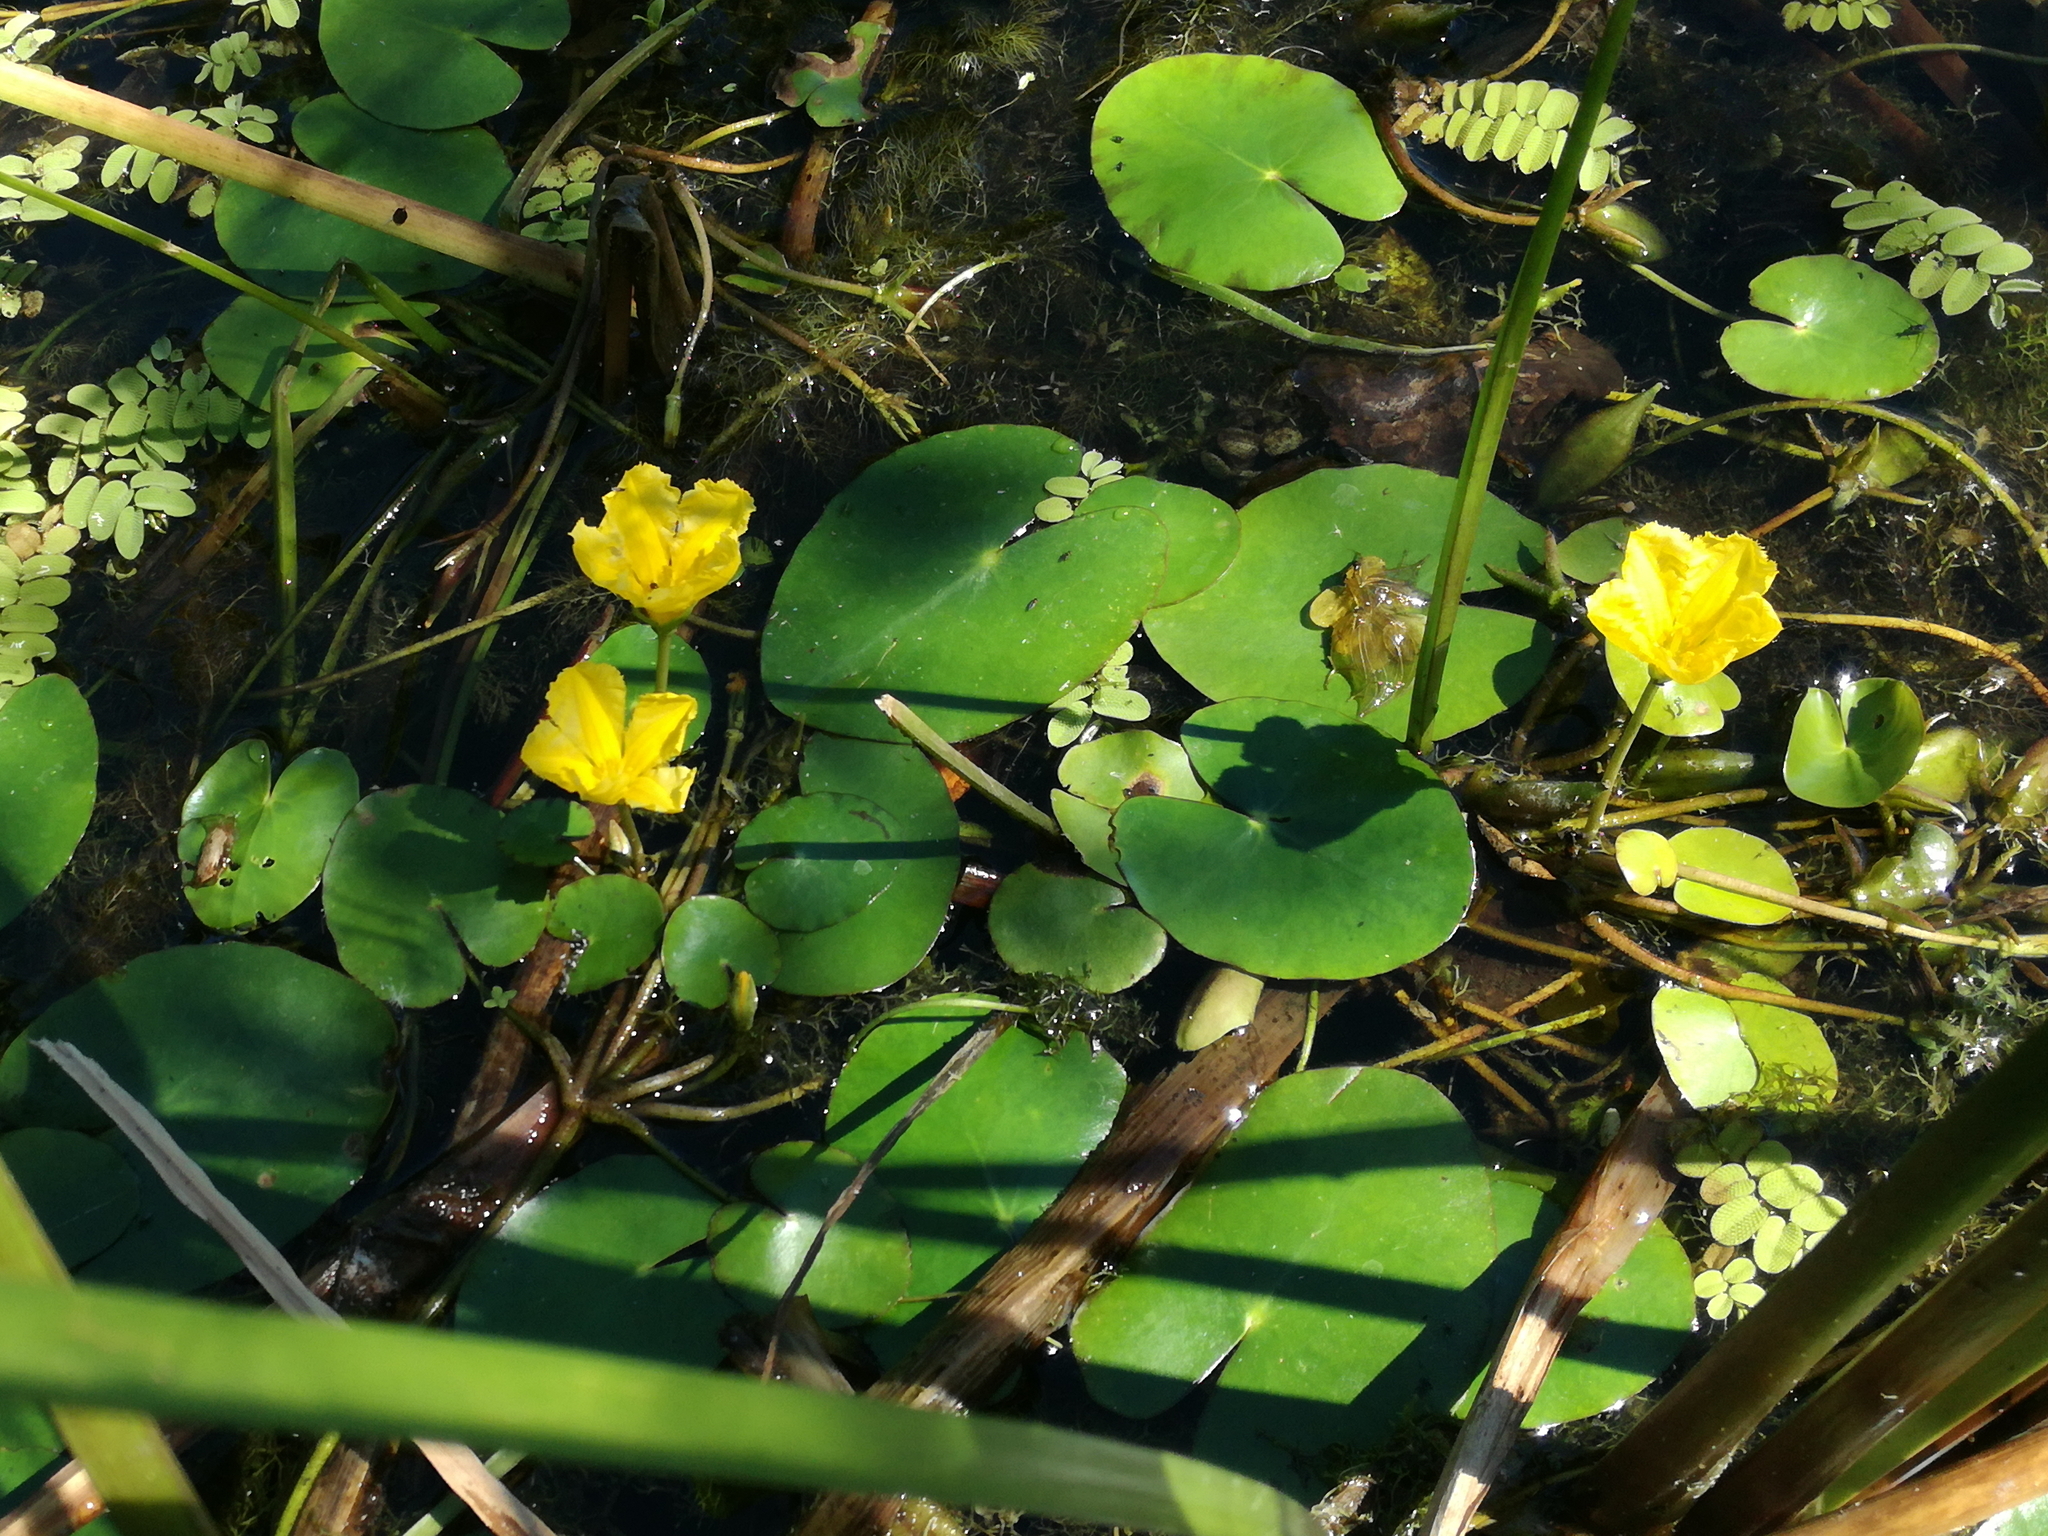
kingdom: Plantae
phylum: Tracheophyta
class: Magnoliopsida
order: Asterales
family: Menyanthaceae
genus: Nymphoides
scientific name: Nymphoides peltata
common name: Fringed water-lily
